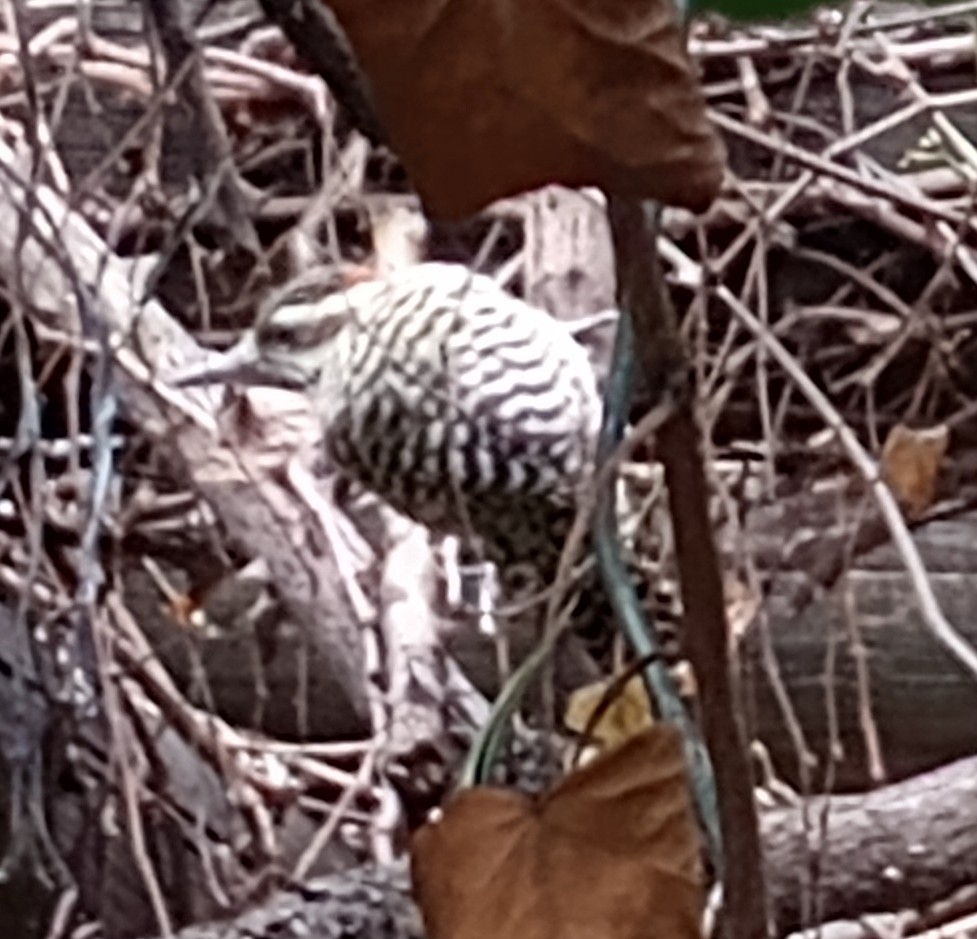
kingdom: Animalia
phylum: Chordata
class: Aves
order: Piciformes
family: Picidae
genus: Veniliornis
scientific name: Veniliornis mixtus
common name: Checkered woodpecker
